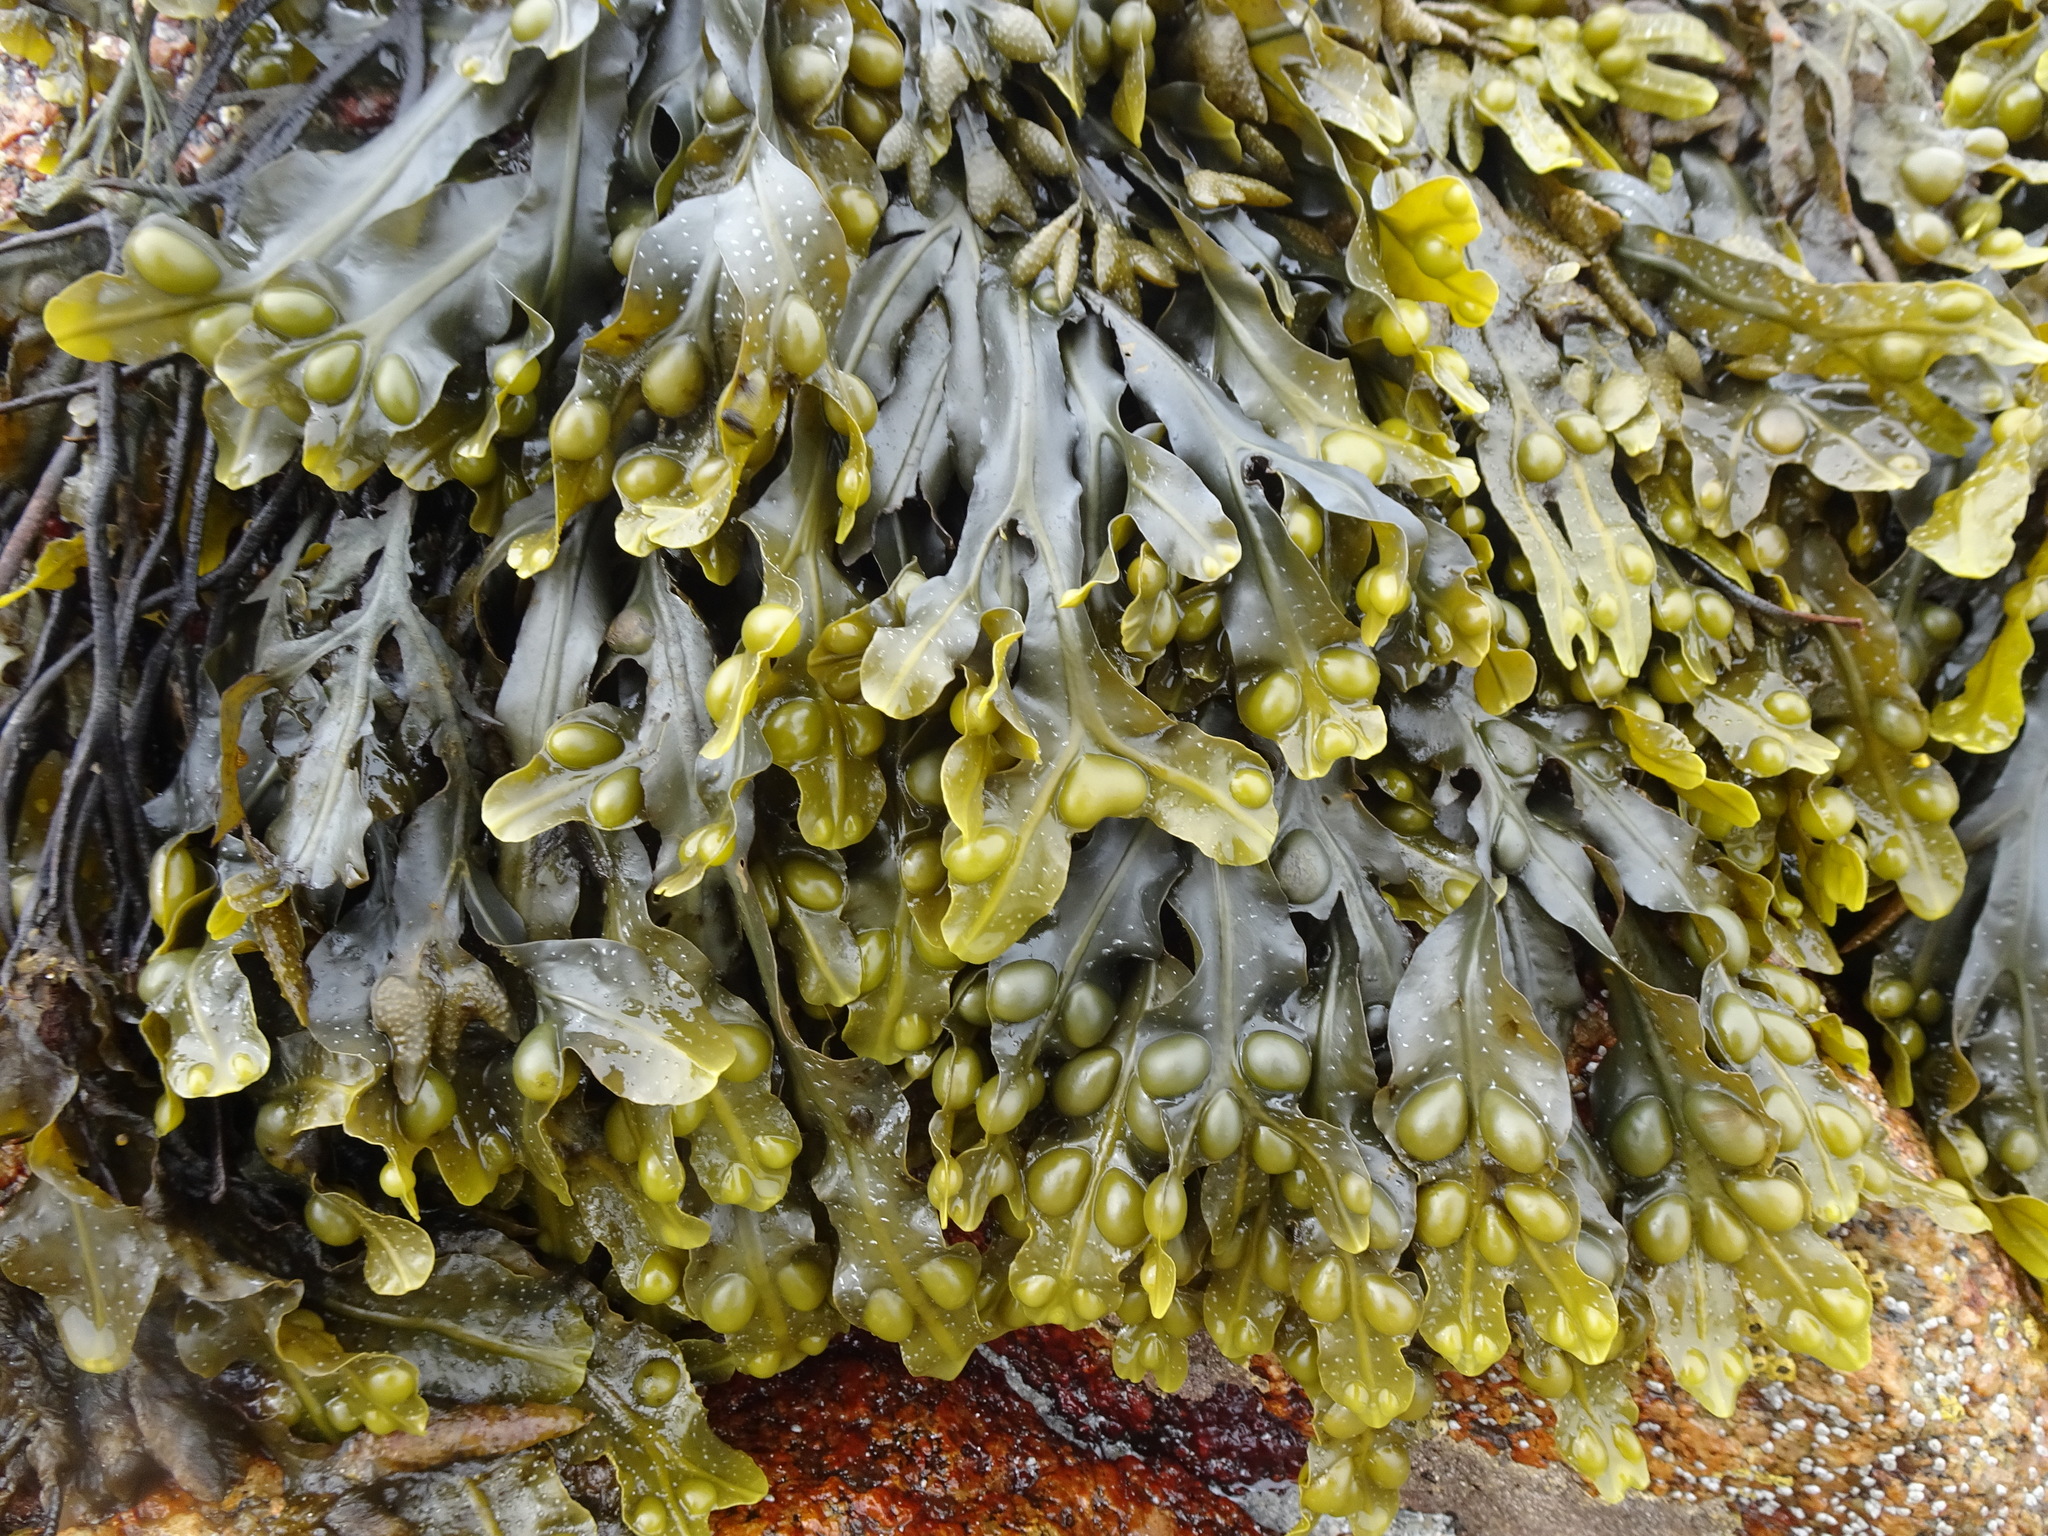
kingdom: Chromista
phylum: Ochrophyta
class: Phaeophyceae
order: Fucales
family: Fucaceae
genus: Fucus
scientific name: Fucus vesiculosus
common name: Bladder wrack
